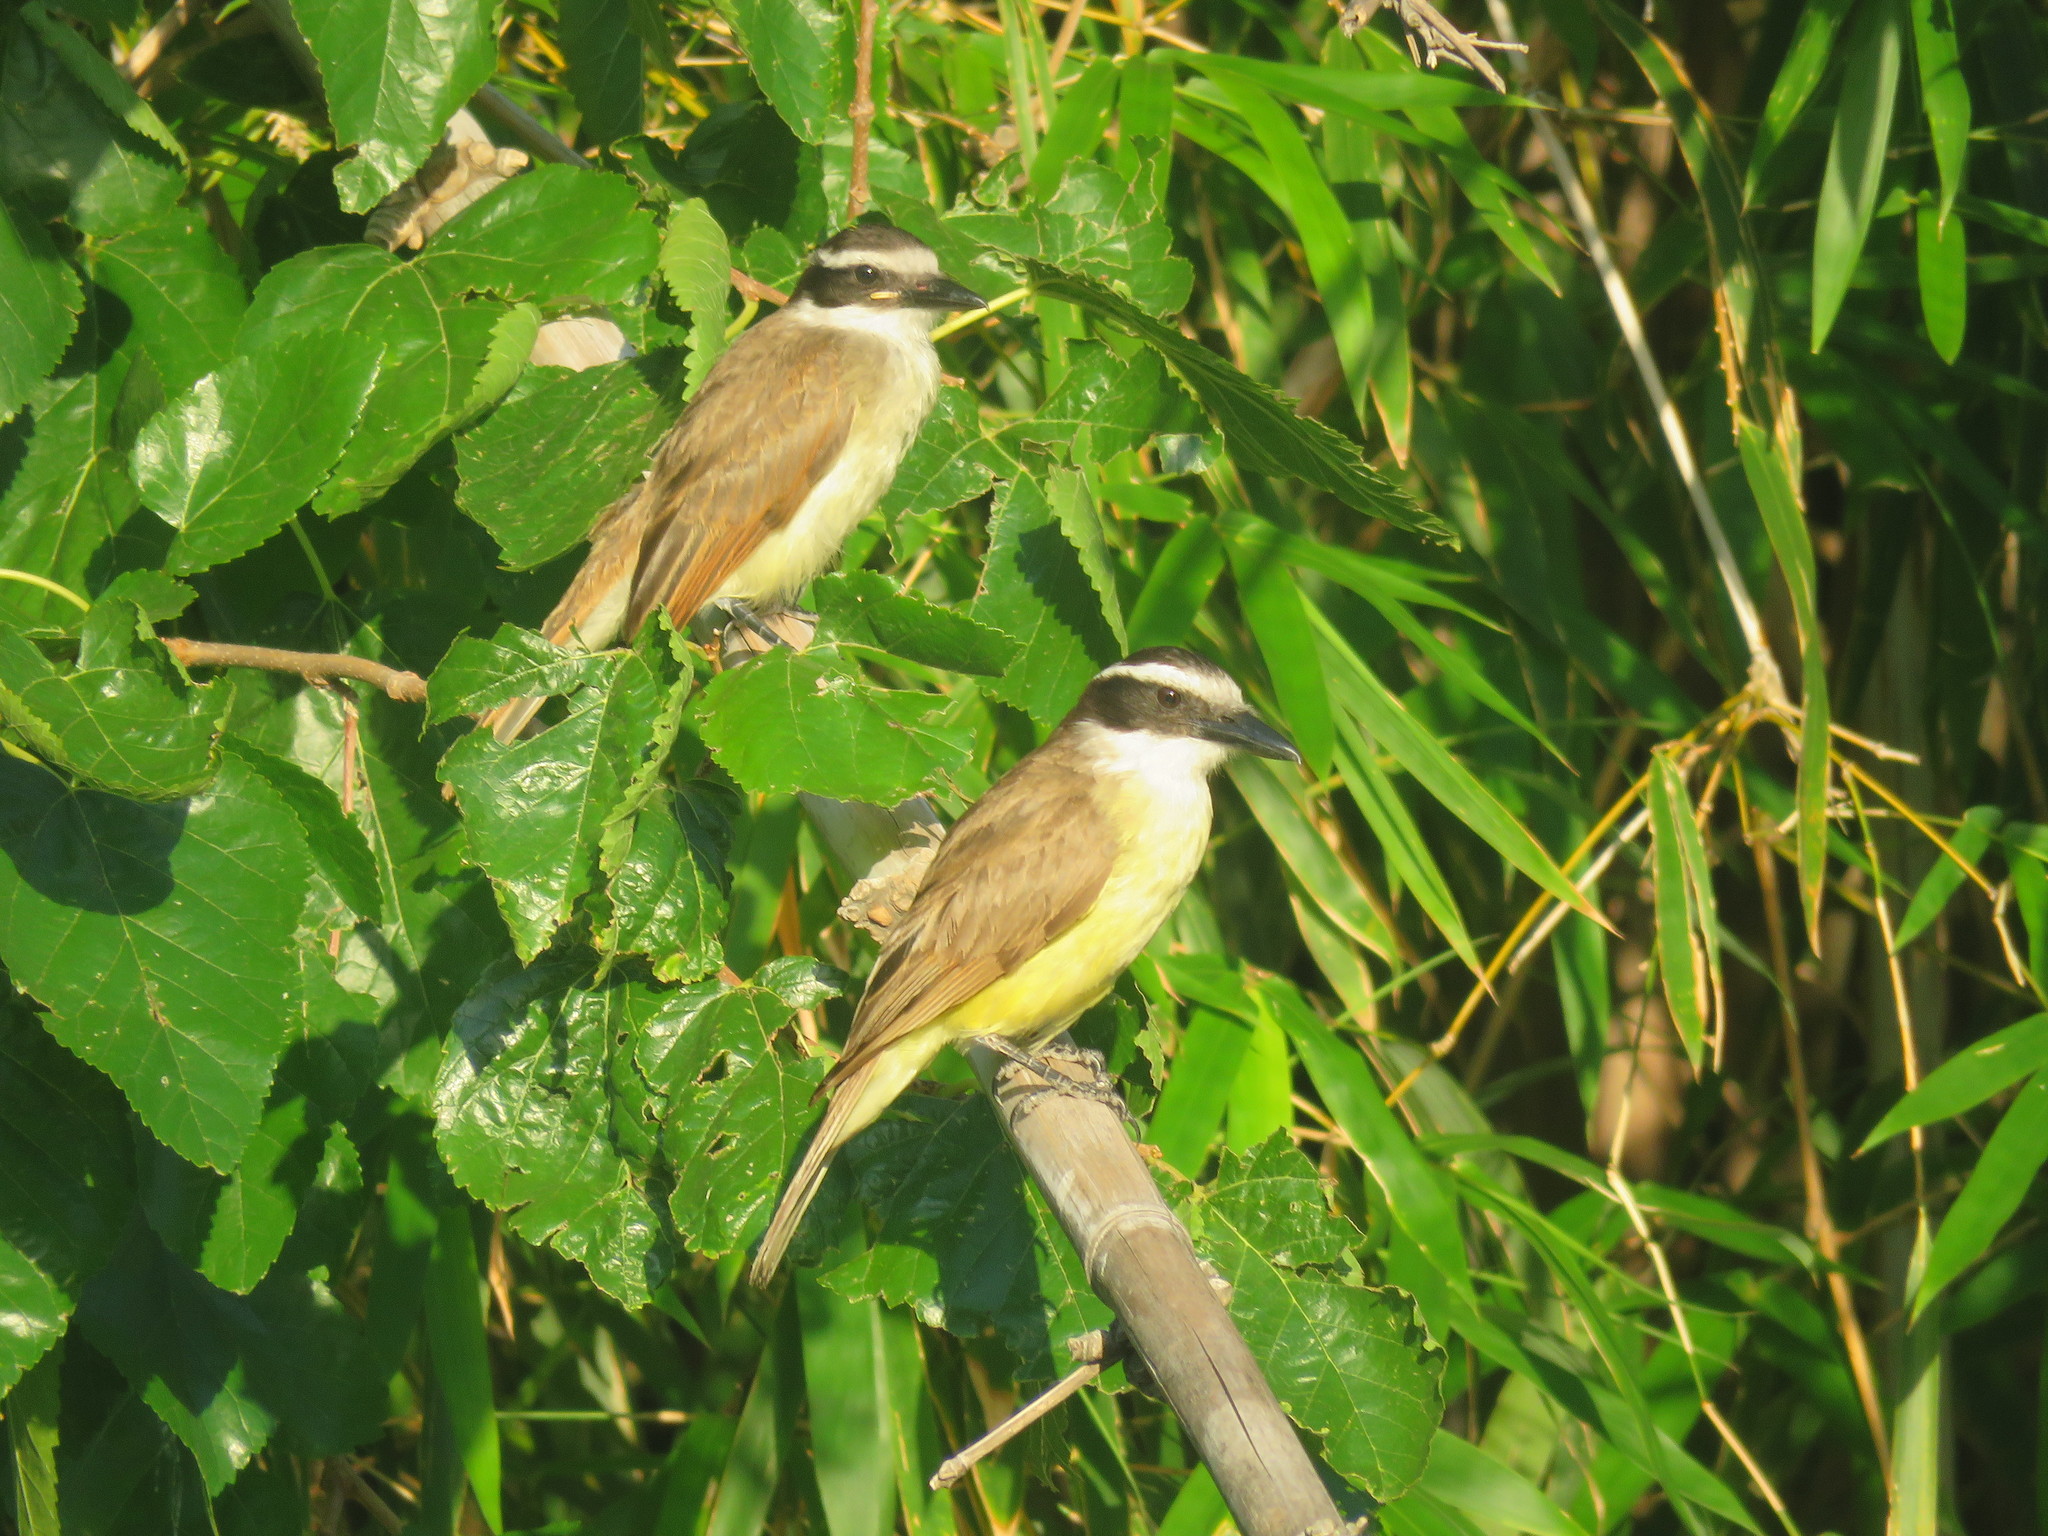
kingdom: Animalia
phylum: Chordata
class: Aves
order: Passeriformes
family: Tyrannidae
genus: Pitangus
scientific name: Pitangus sulphuratus
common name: Great kiskadee
